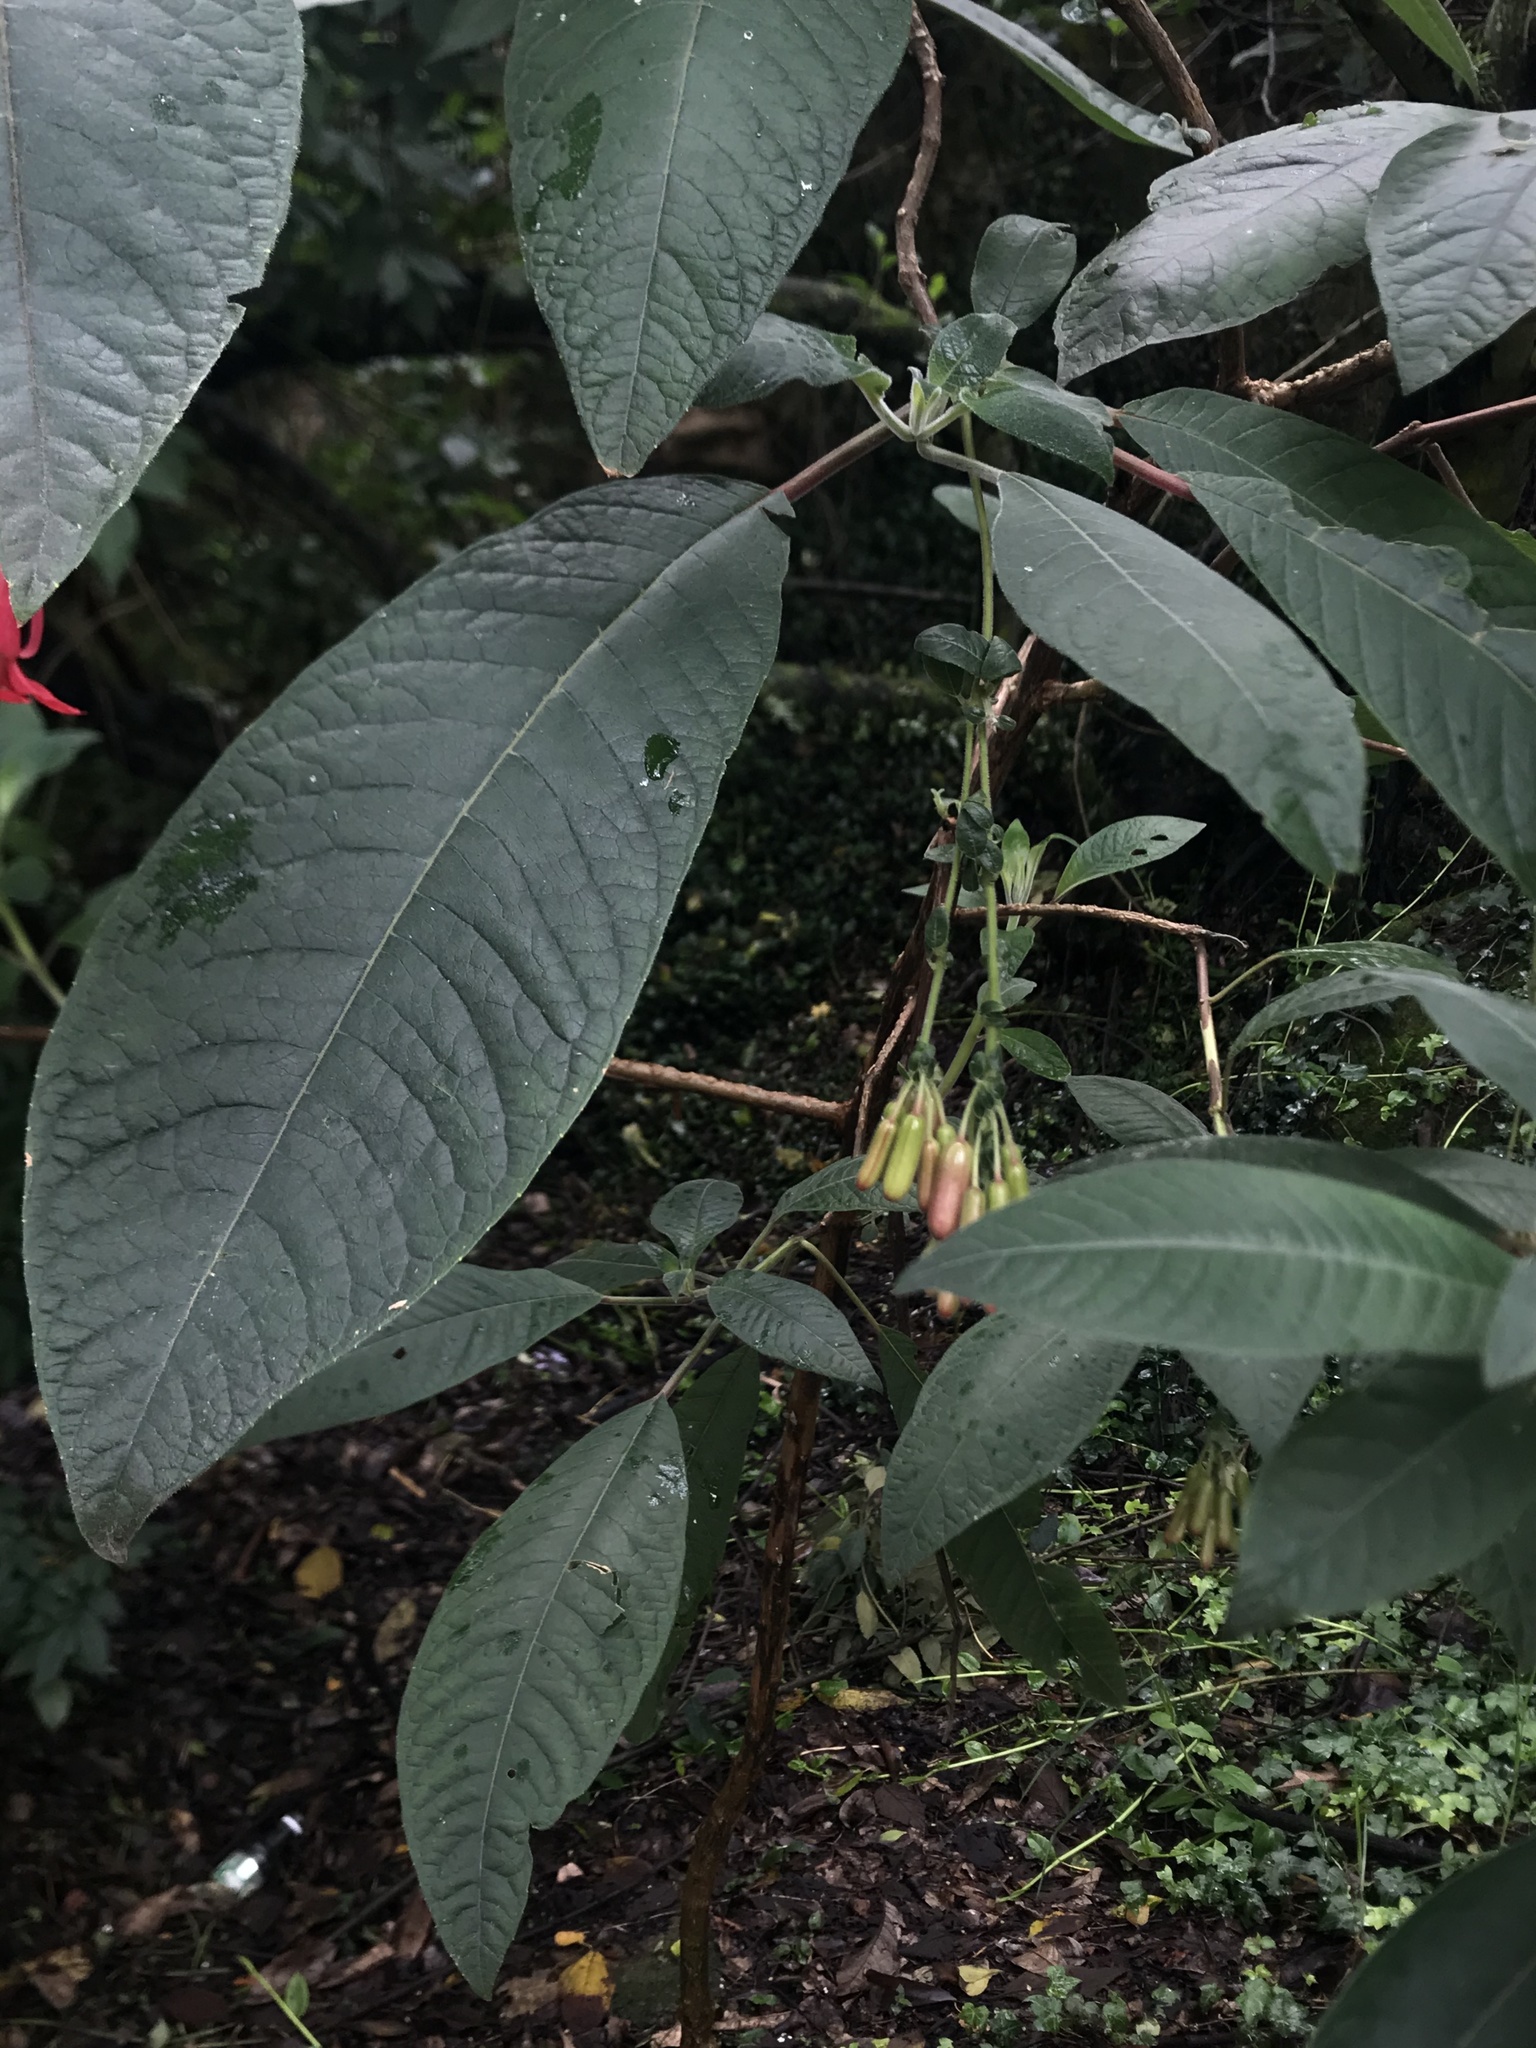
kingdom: Plantae
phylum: Tracheophyta
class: Magnoliopsida
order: Myrtales
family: Onagraceae
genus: Fuchsia
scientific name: Fuchsia boliviana
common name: Bolivian fuchsia
